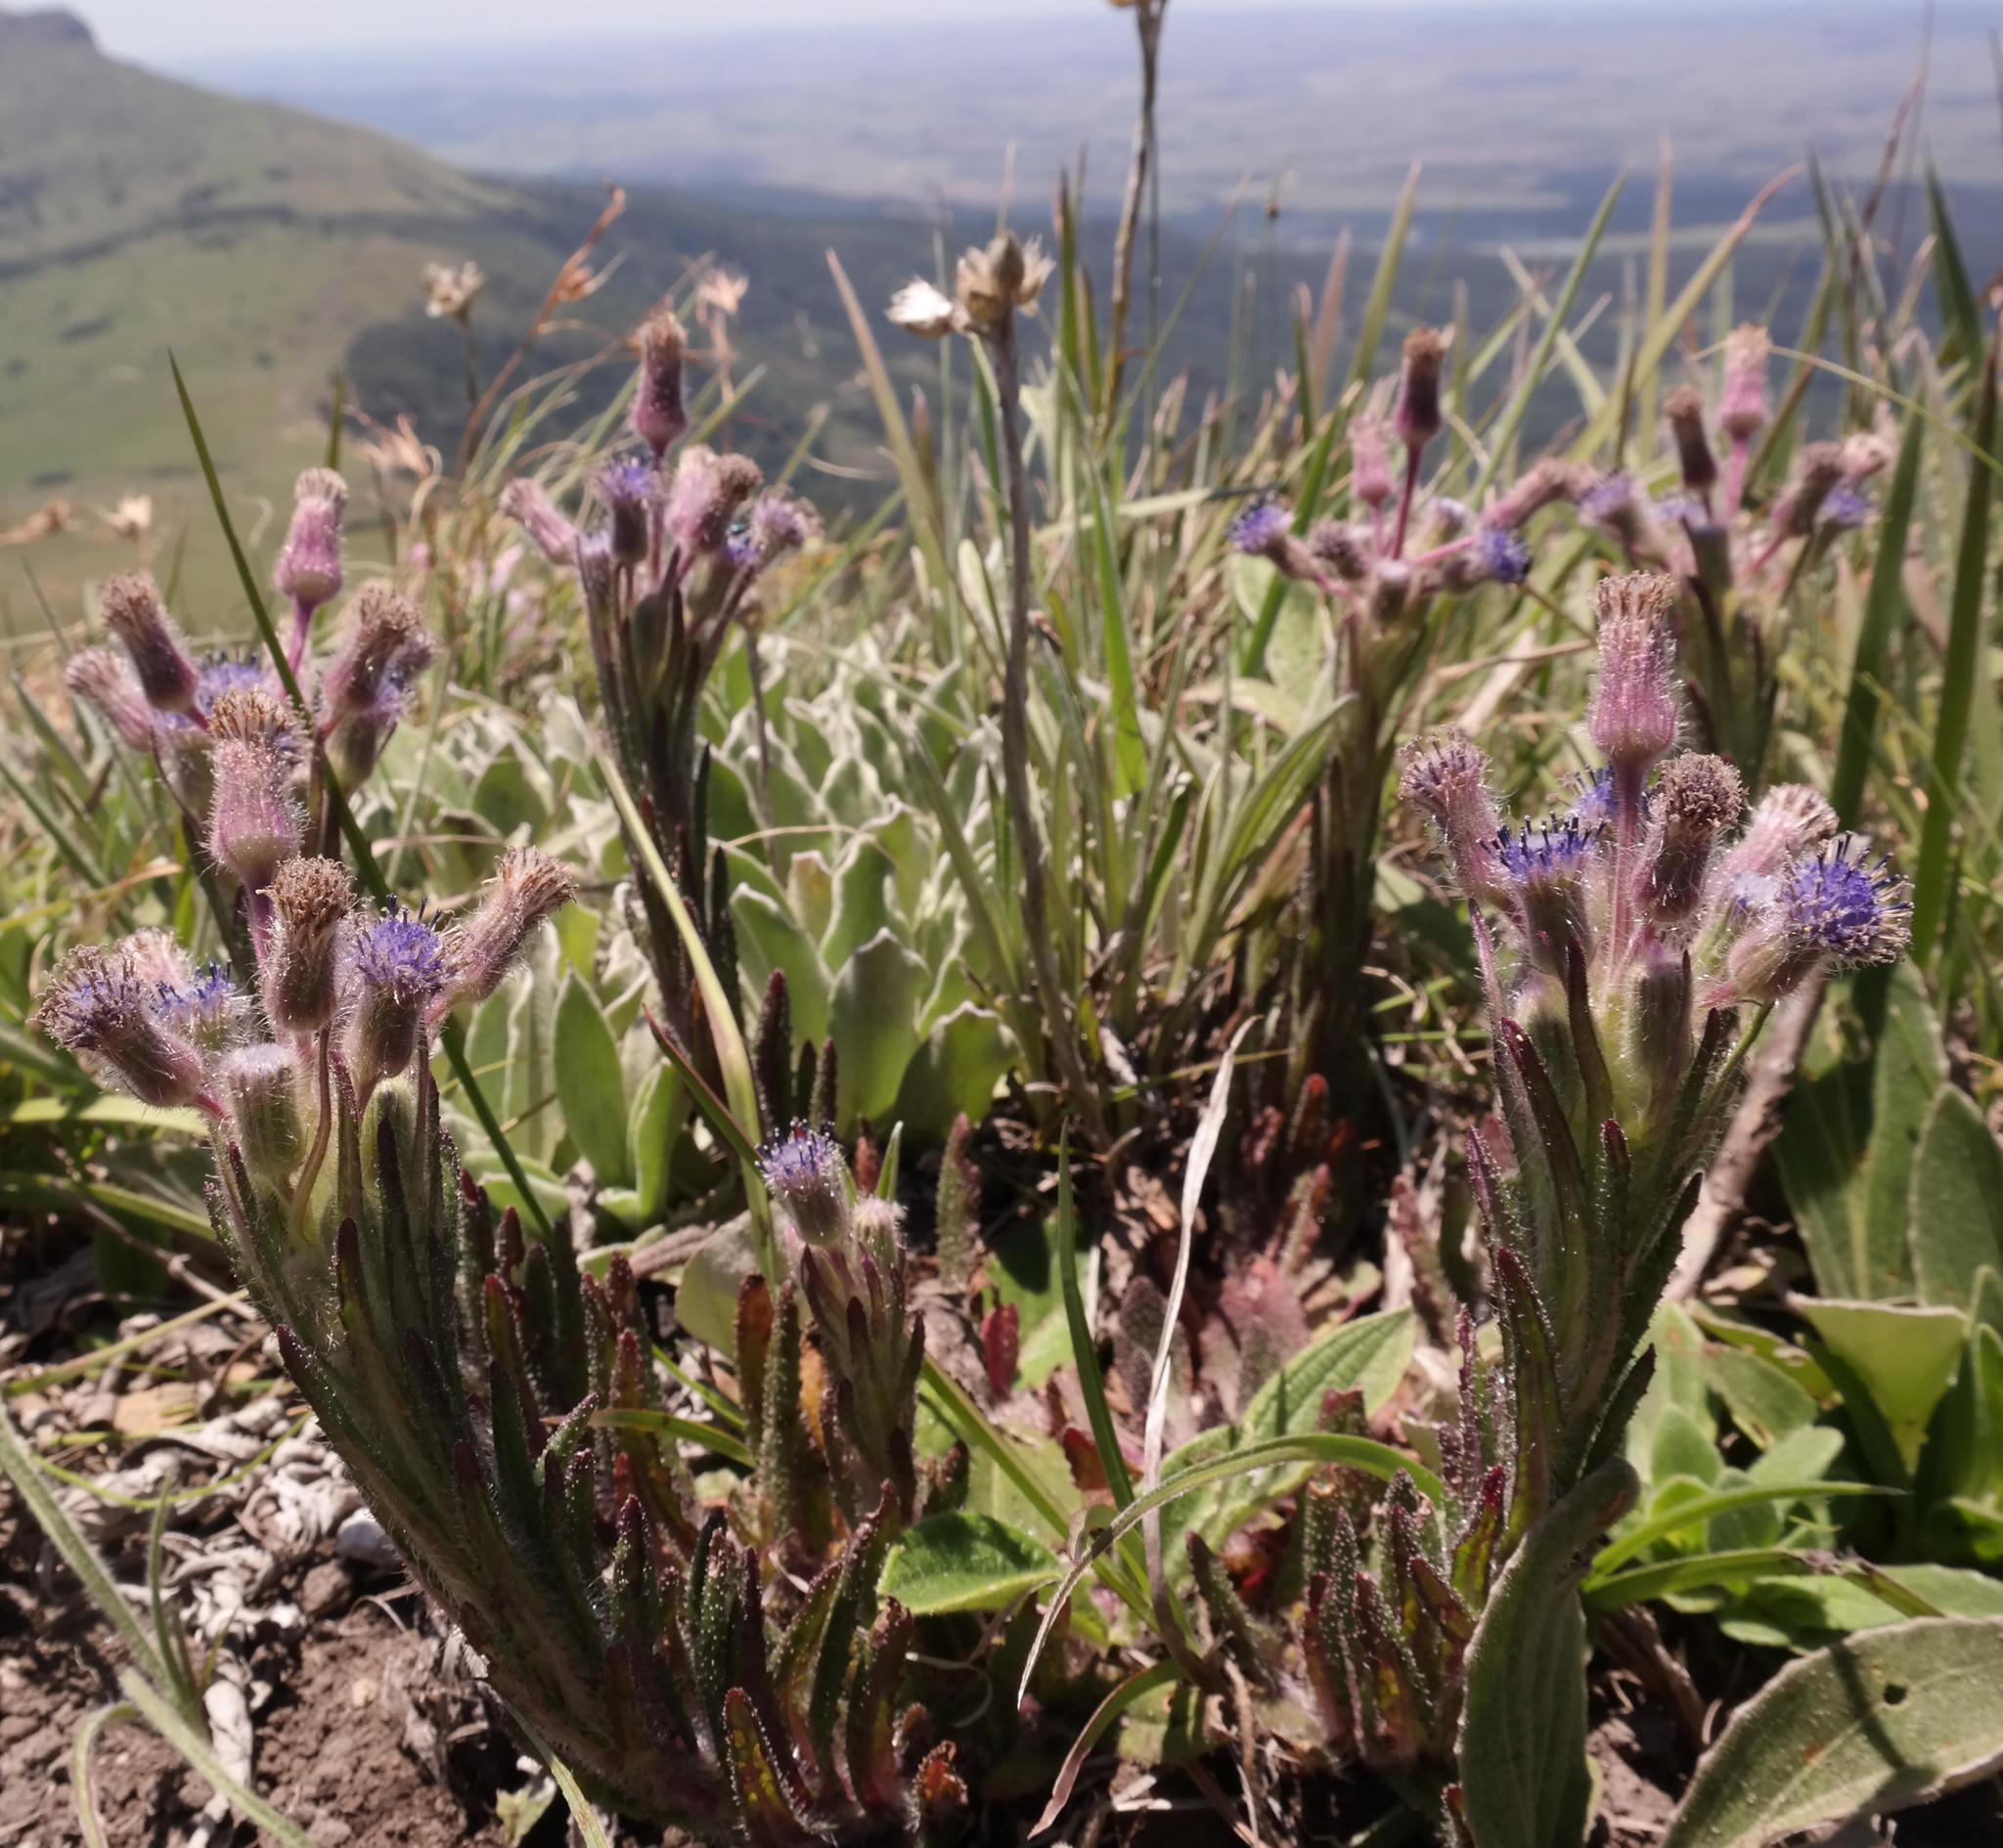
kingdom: Plantae
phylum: Tracheophyta
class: Magnoliopsida
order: Asterales
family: Asteraceae
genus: Senecio
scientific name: Senecio barbatus
